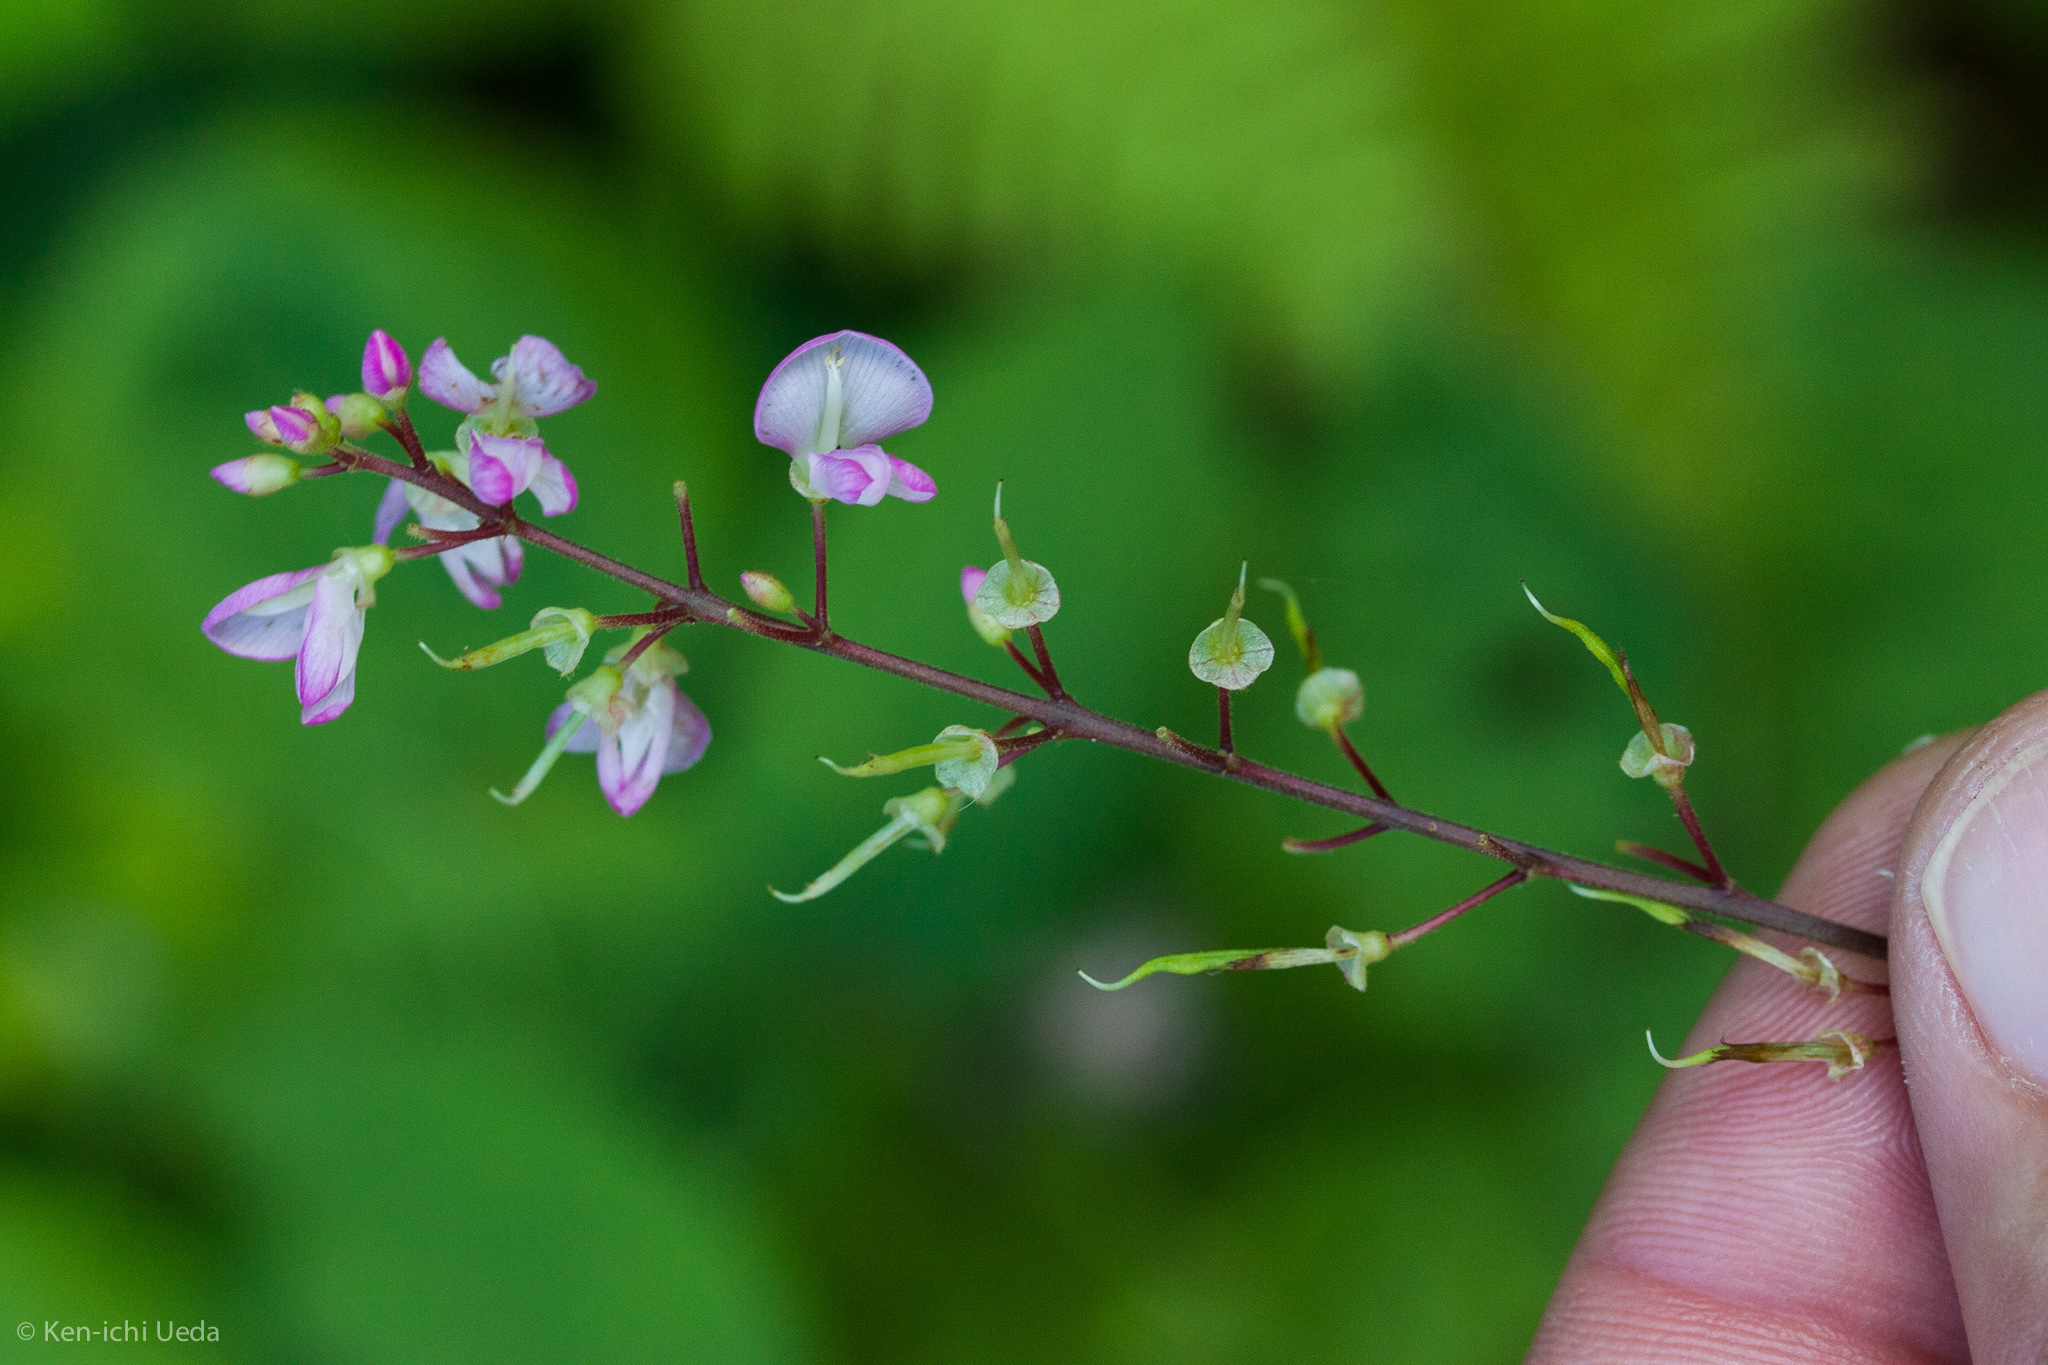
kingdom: Plantae
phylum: Tracheophyta
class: Magnoliopsida
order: Fabales
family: Fabaceae
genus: Hylodesmum
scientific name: Hylodesmum glutinosum
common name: Clustered-leaved tick-trefoil
